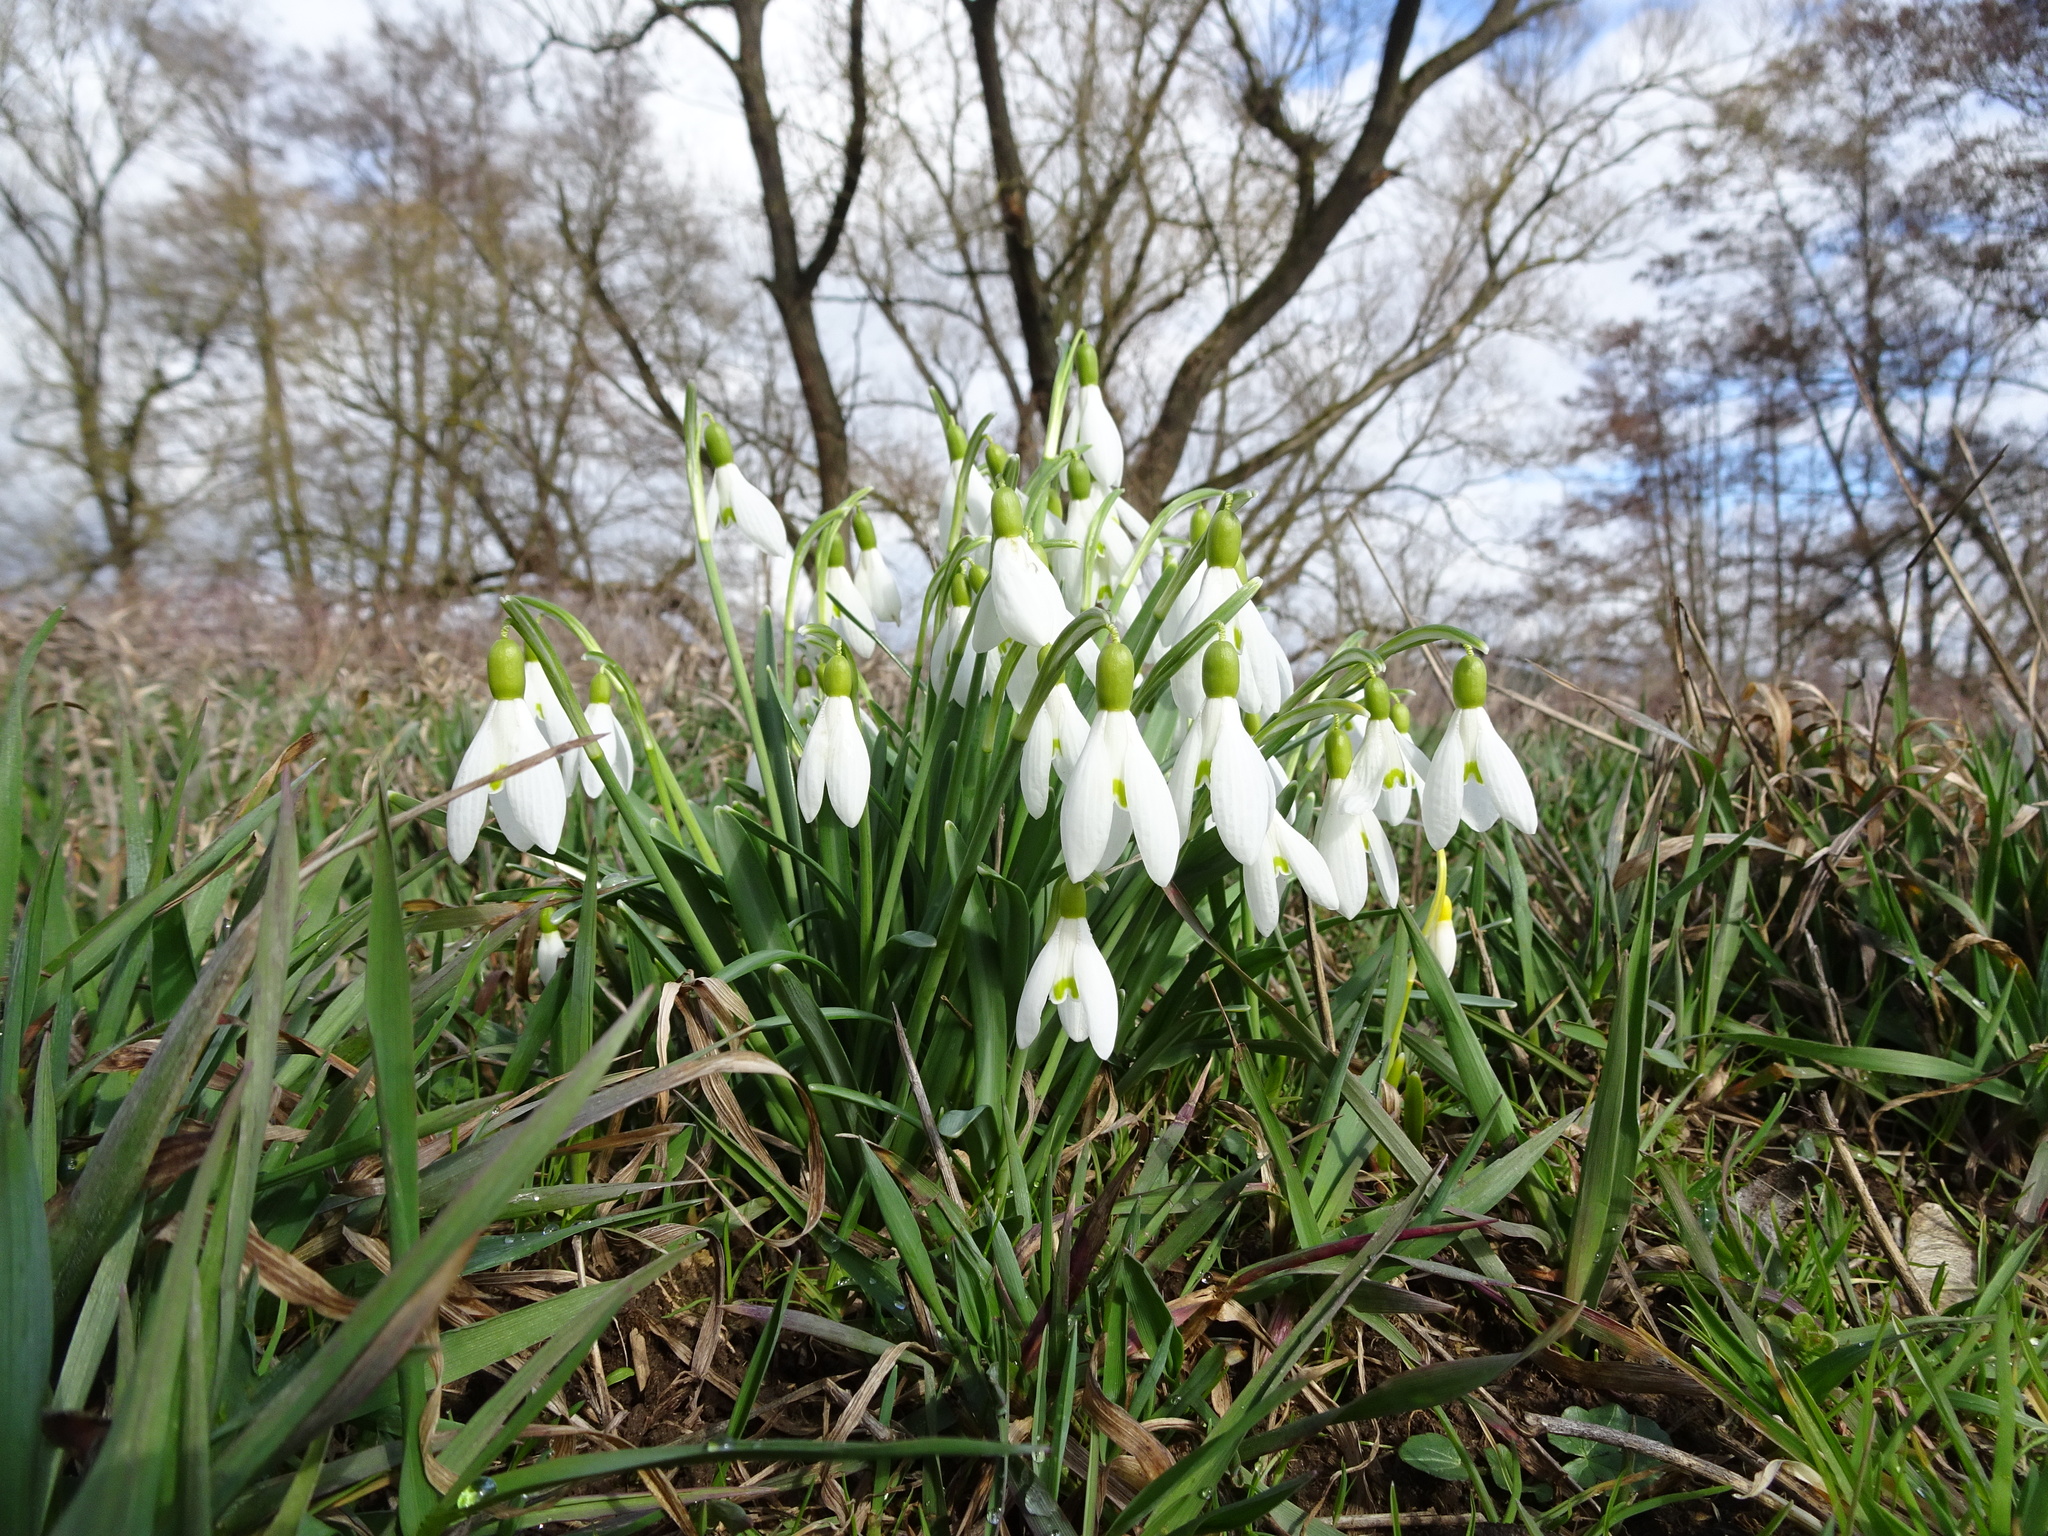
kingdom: Plantae
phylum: Tracheophyta
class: Liliopsida
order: Asparagales
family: Amaryllidaceae
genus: Galanthus
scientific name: Galanthus nivalis
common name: Snowdrop
